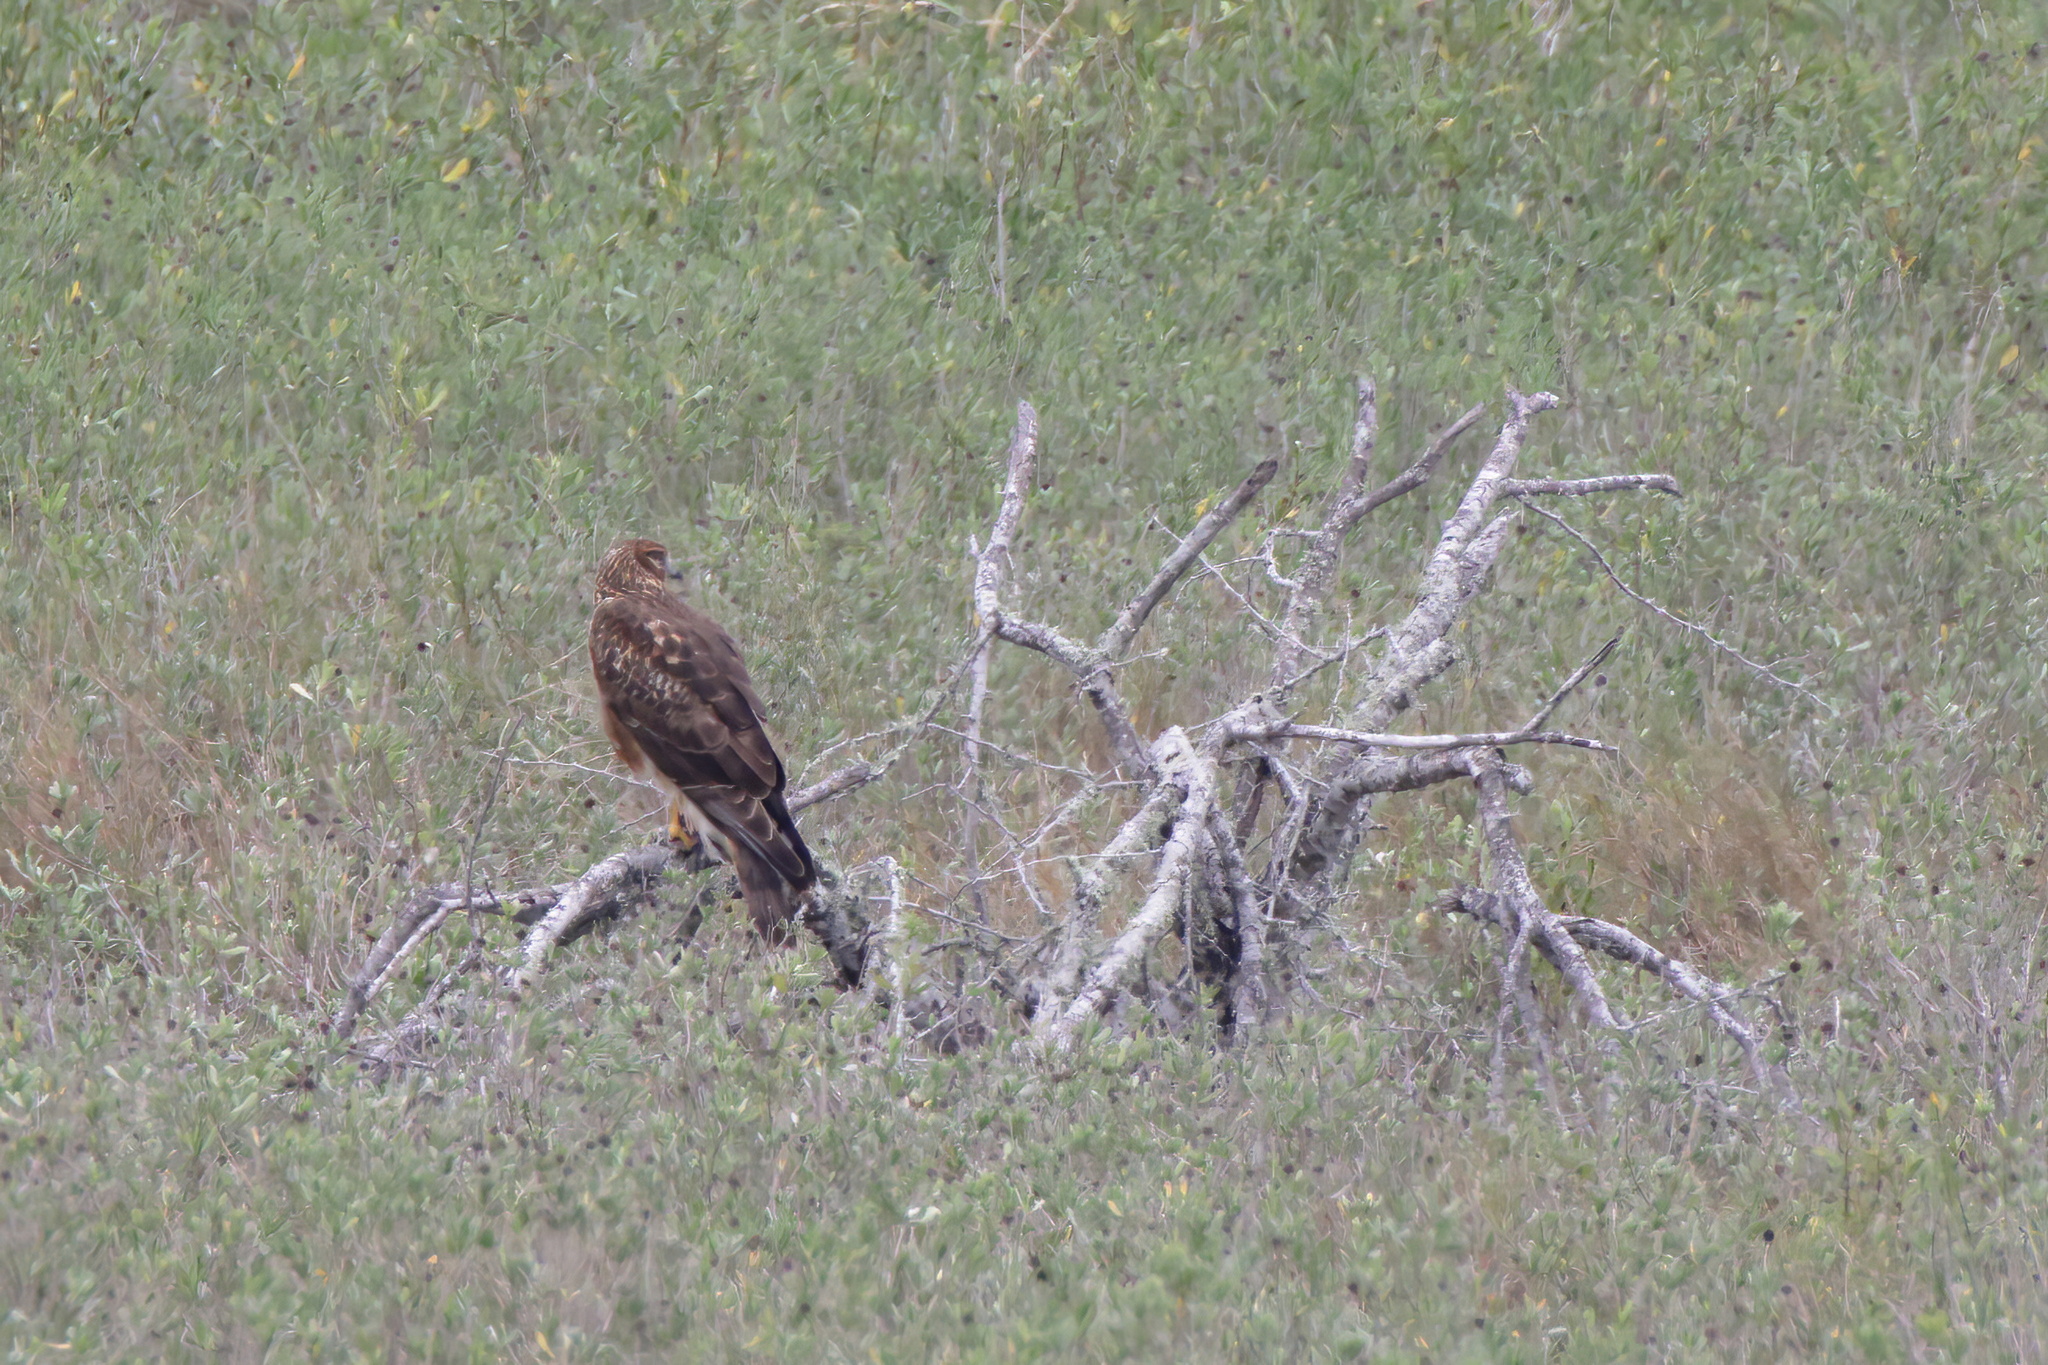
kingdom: Animalia
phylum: Chordata
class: Aves
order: Accipitriformes
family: Accipitridae
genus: Circus
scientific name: Circus cyaneus
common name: Hen harrier
